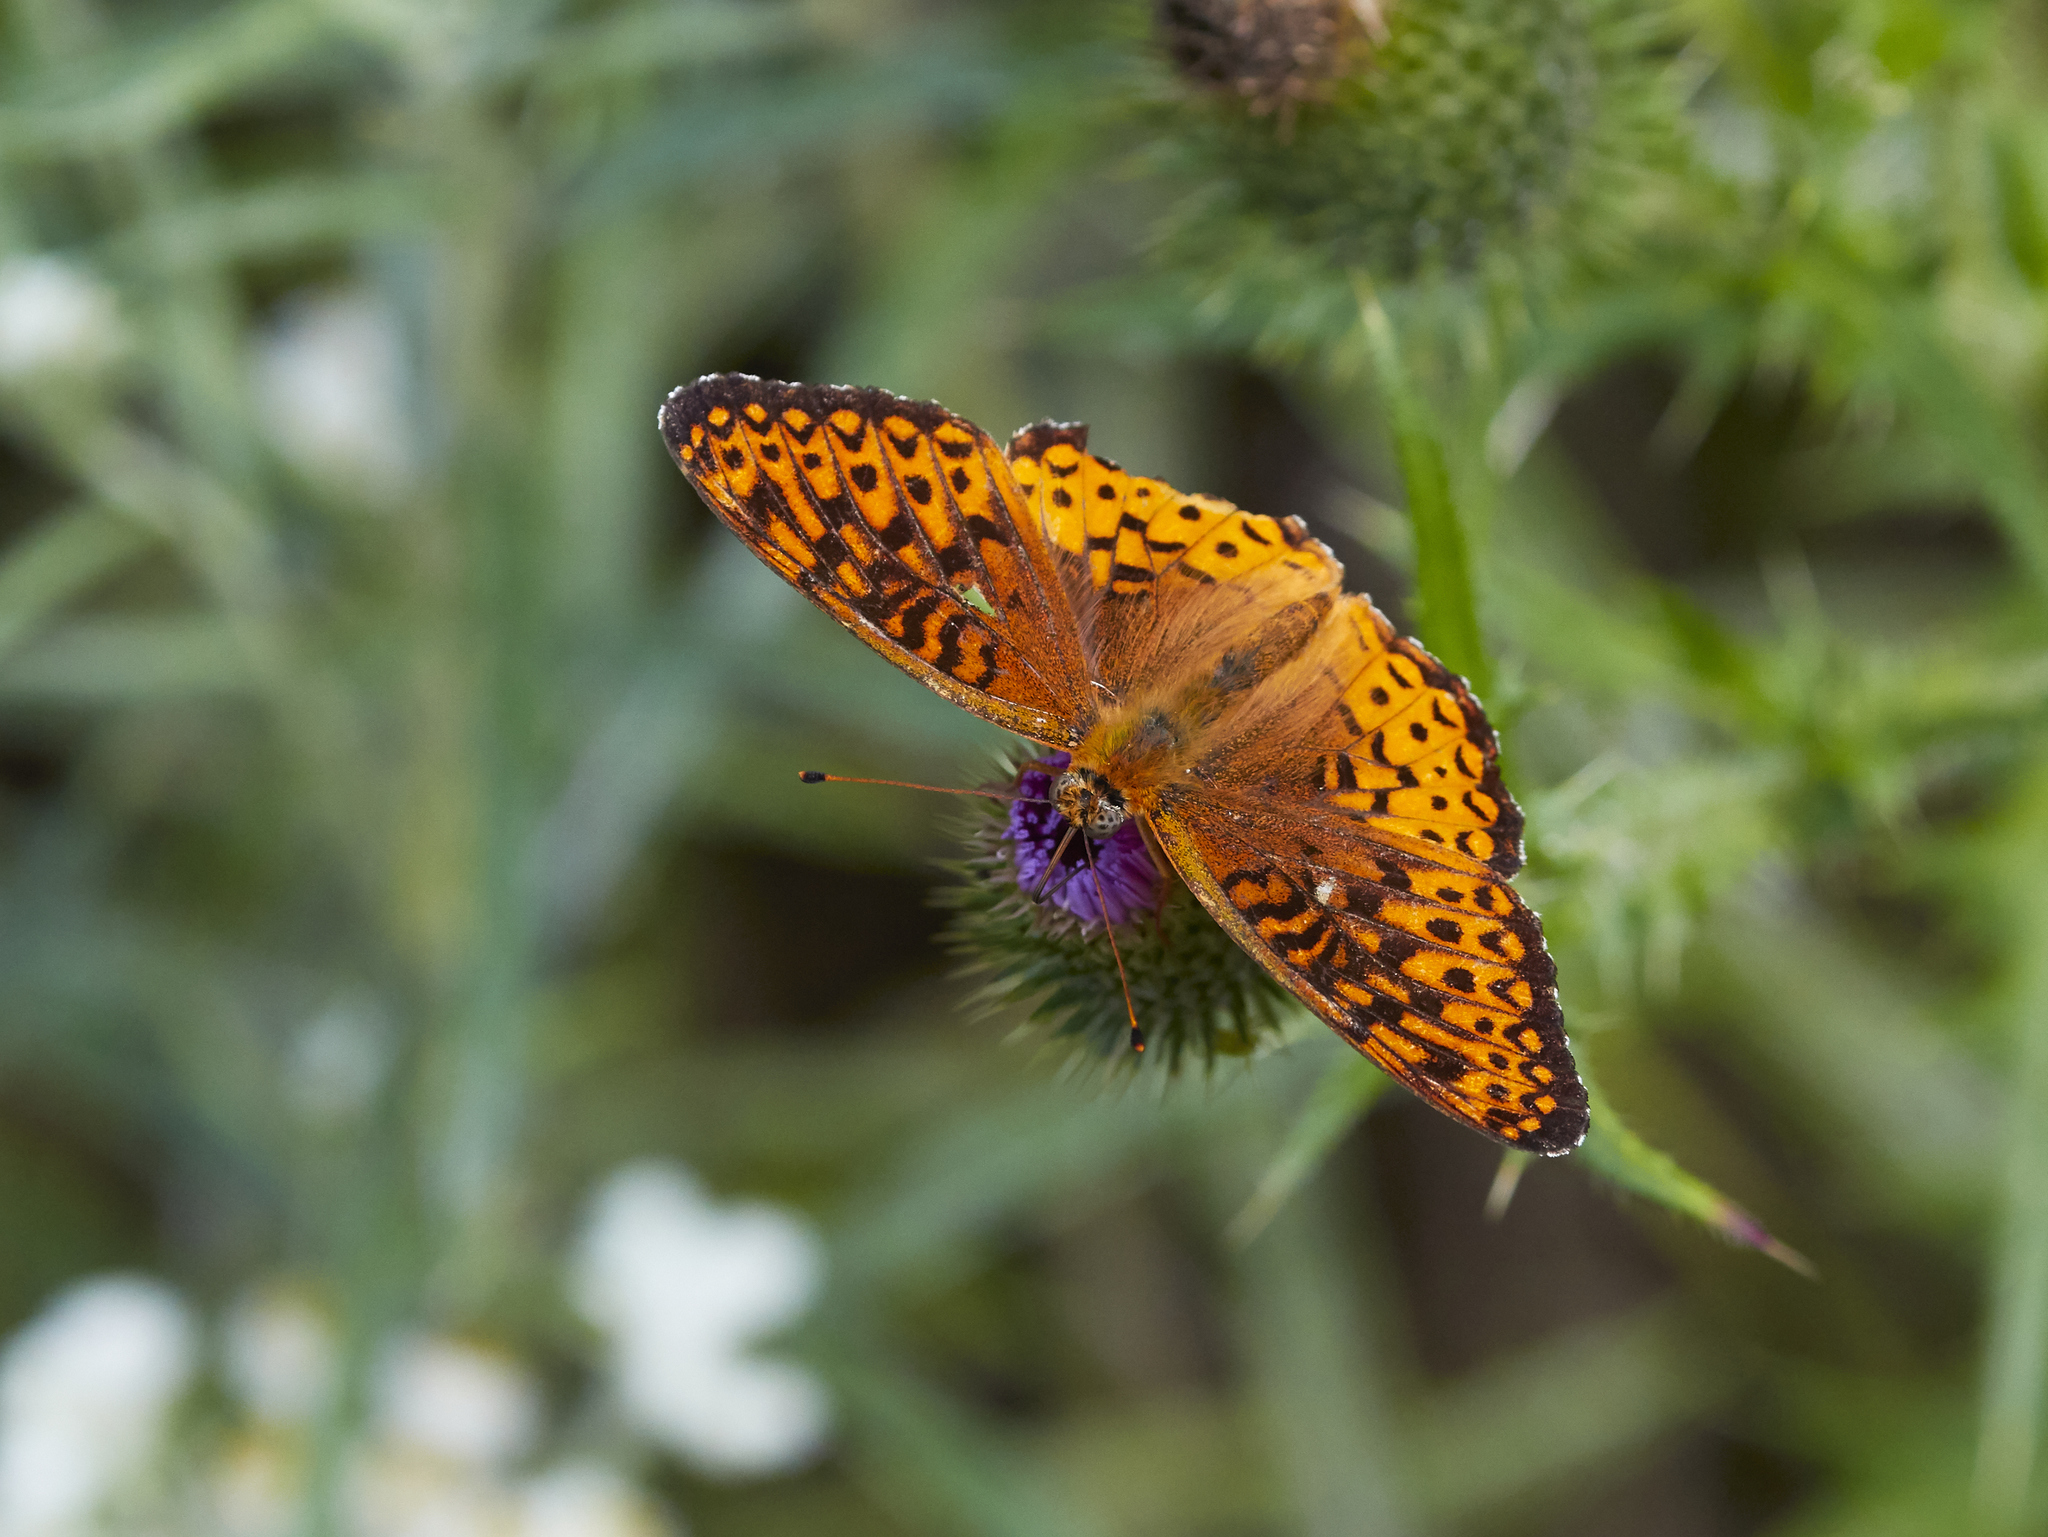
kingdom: Animalia
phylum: Arthropoda
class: Insecta
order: Lepidoptera
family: Nymphalidae
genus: Speyeria
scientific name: Speyeria atlantis
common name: Atlantis fritillary
